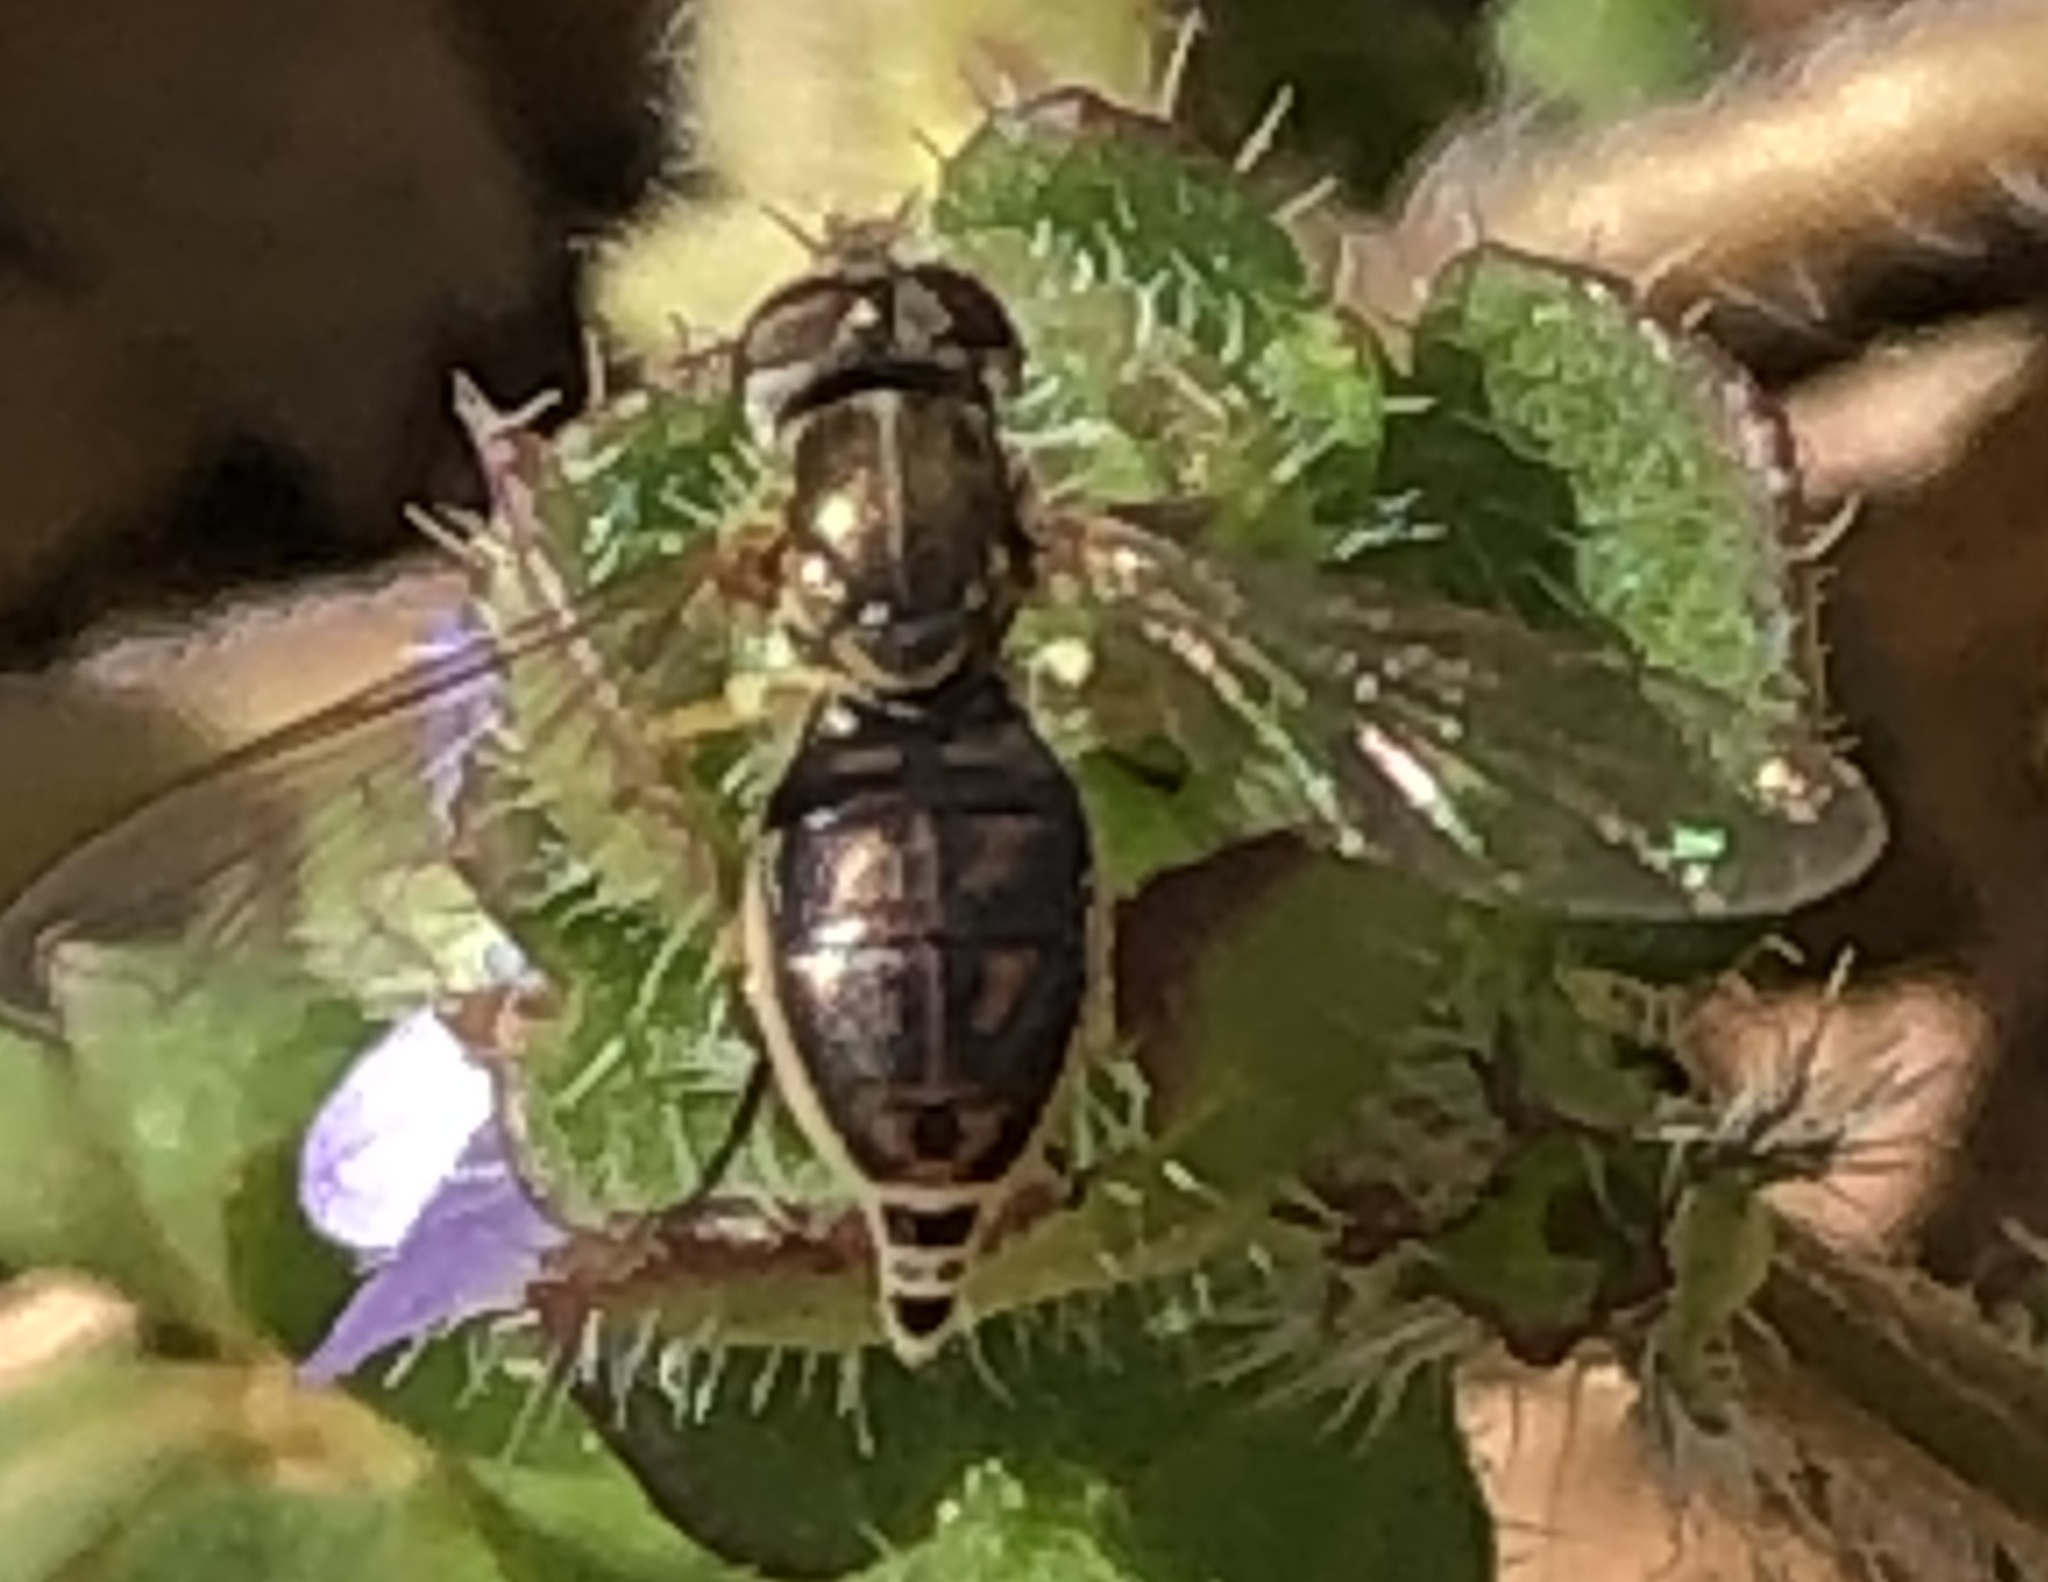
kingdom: Animalia
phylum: Arthropoda
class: Insecta
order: Diptera
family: Syrphidae
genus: Toxomerus
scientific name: Toxomerus marginatus
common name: Syrphid fly
